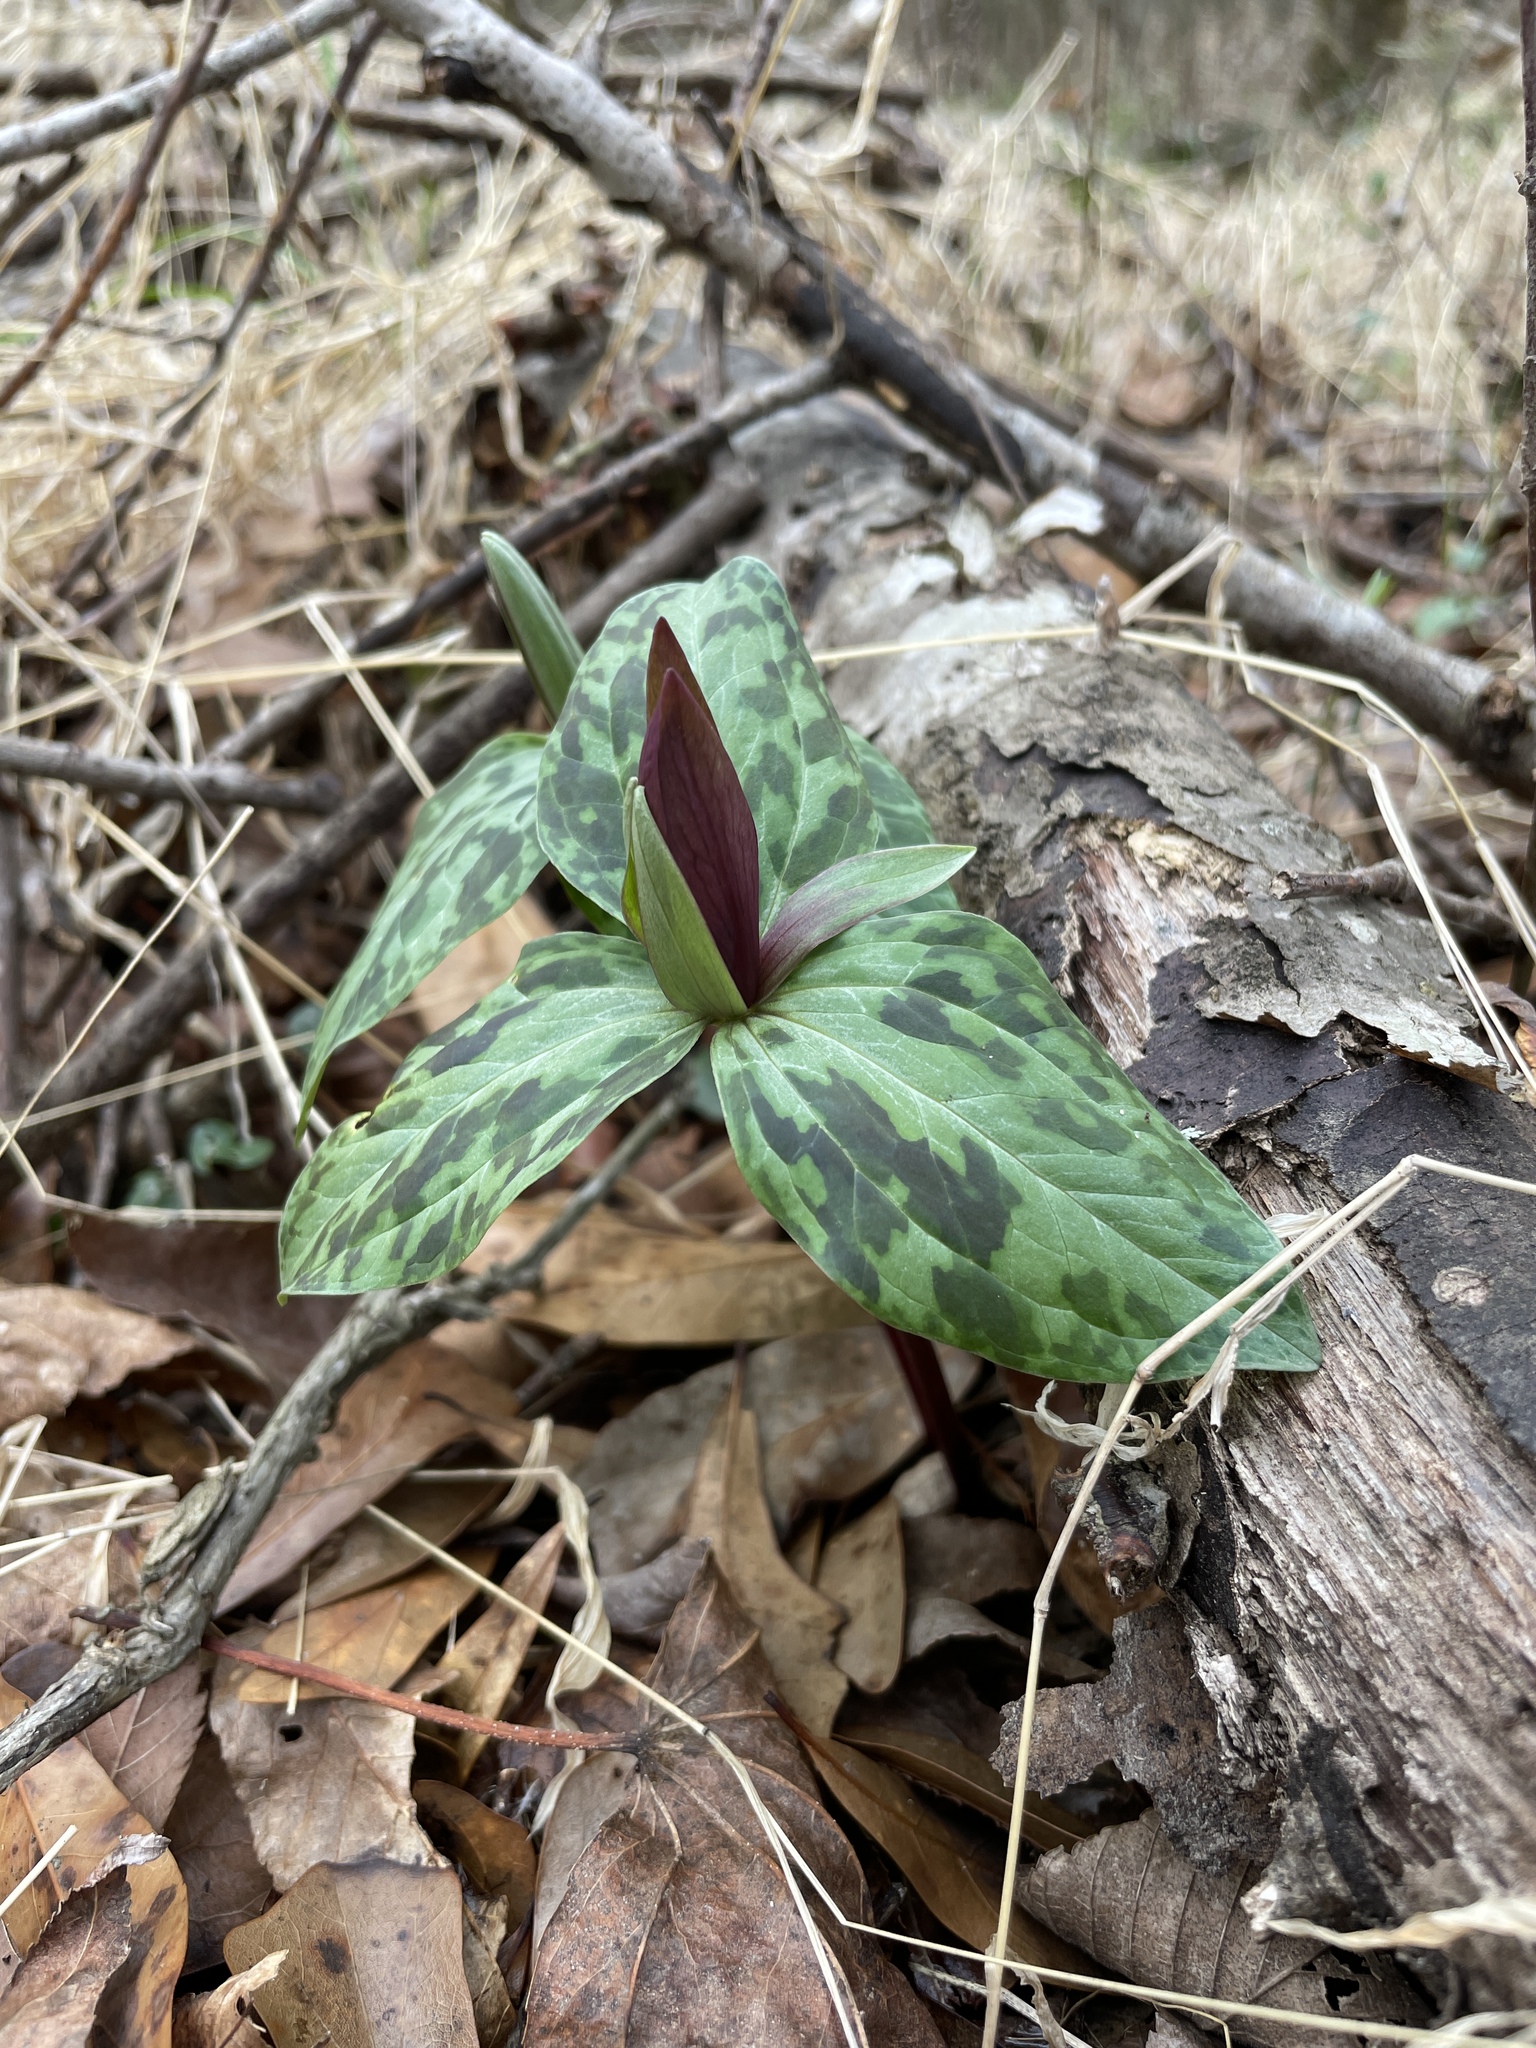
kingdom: Plantae
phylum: Tracheophyta
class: Liliopsida
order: Liliales
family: Melanthiaceae
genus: Trillium
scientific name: Trillium cuneatum
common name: Cuneate trillium
